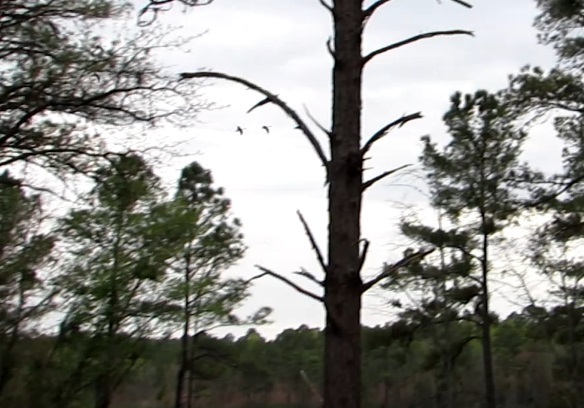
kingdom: Animalia
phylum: Chordata
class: Aves
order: Anseriformes
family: Anatidae
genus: Branta
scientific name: Branta canadensis
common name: Canada goose
